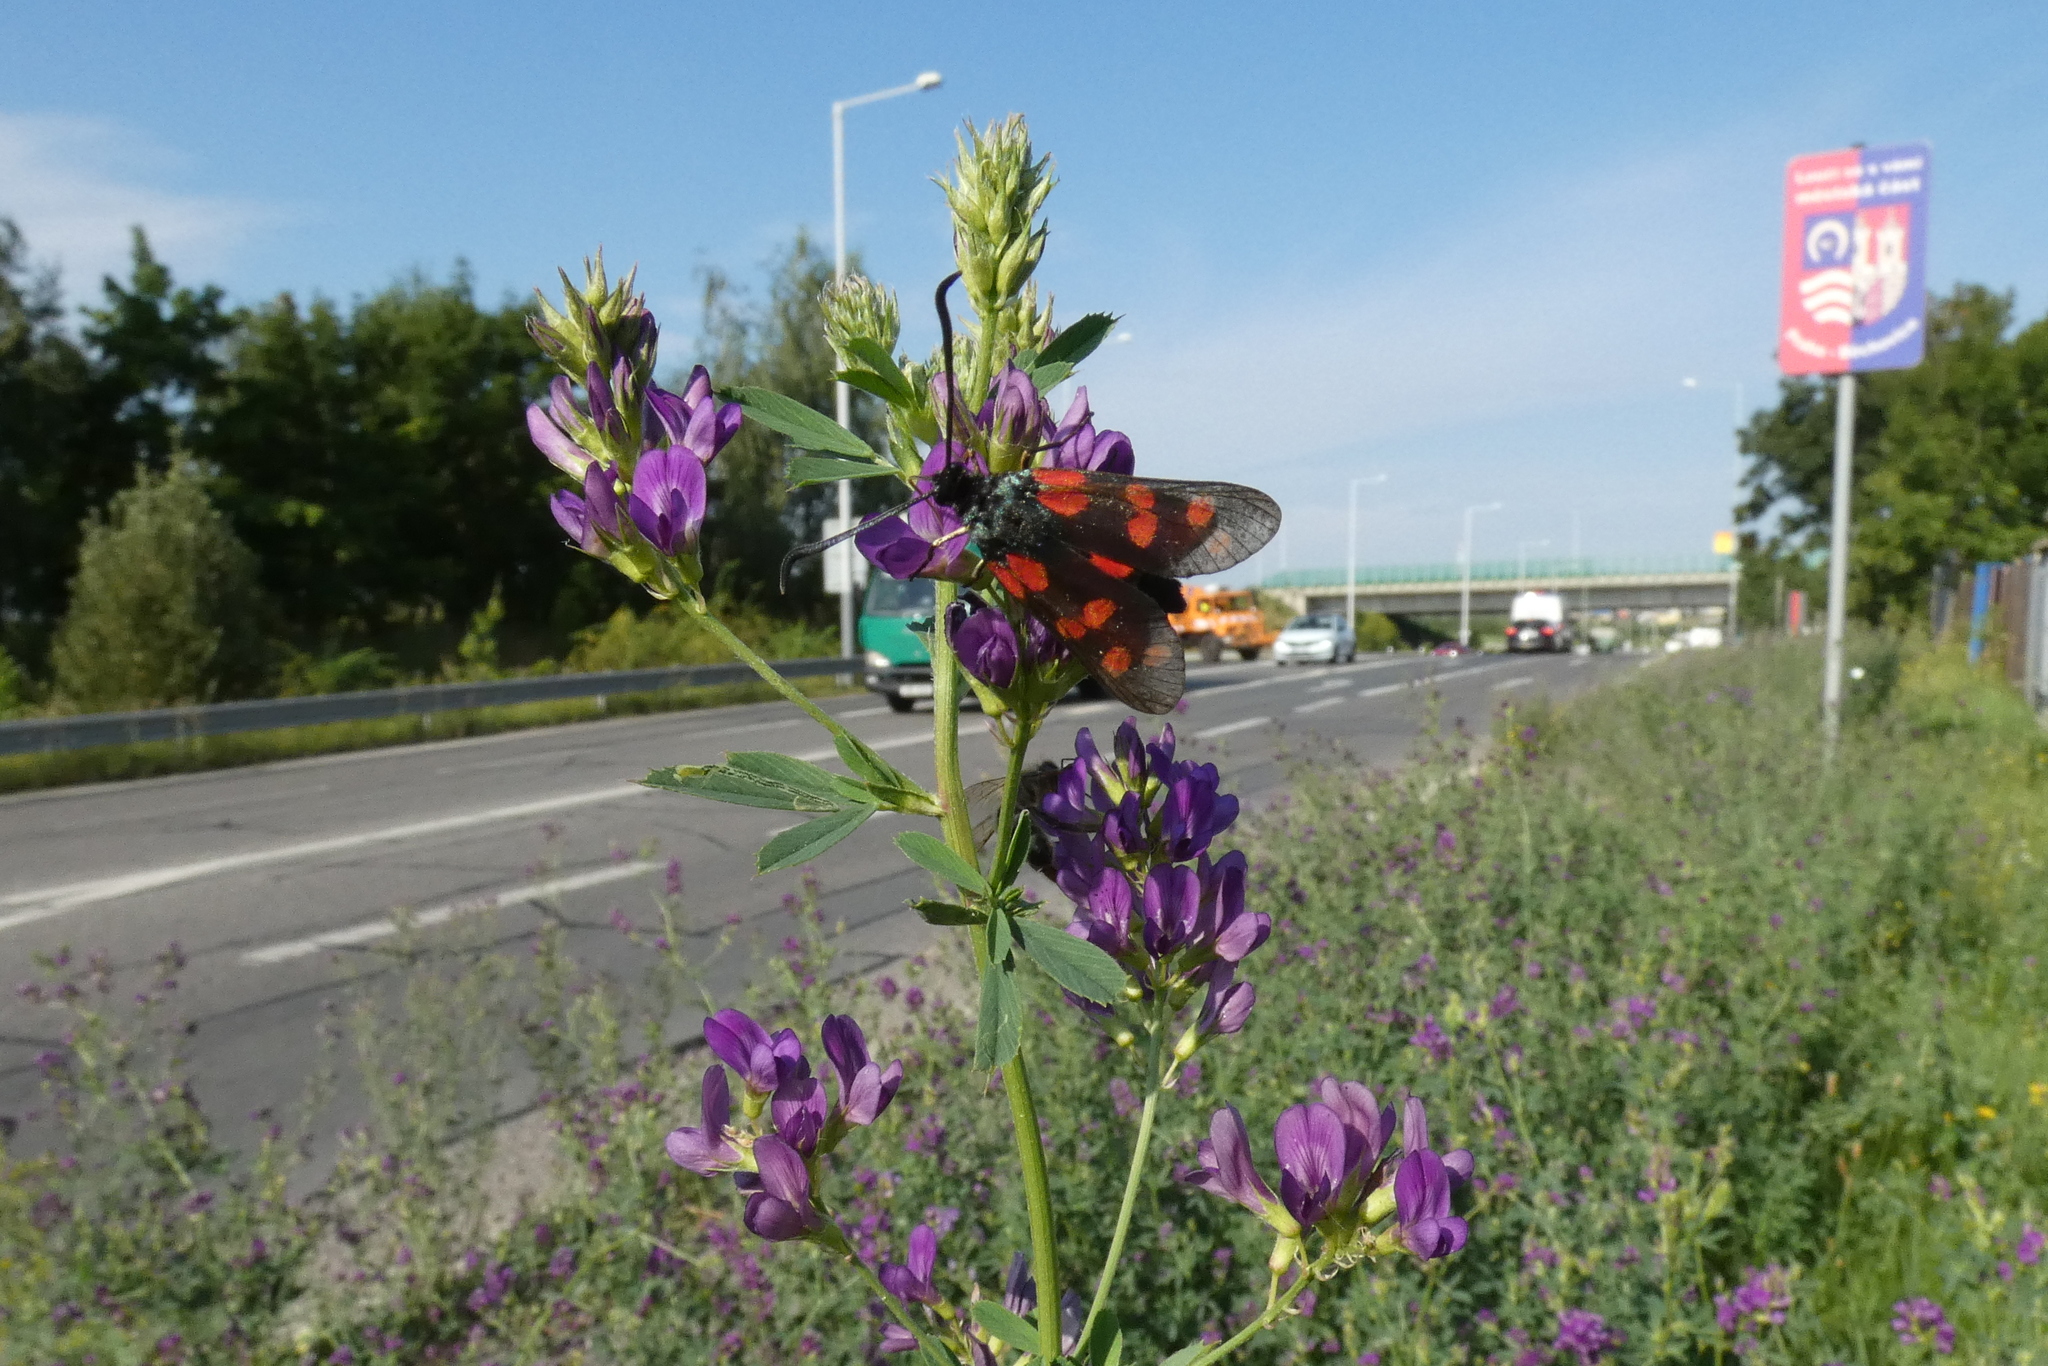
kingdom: Animalia
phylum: Arthropoda
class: Insecta
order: Lepidoptera
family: Zygaenidae
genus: Zygaena
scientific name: Zygaena filipendulae
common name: Six-spot burnet
